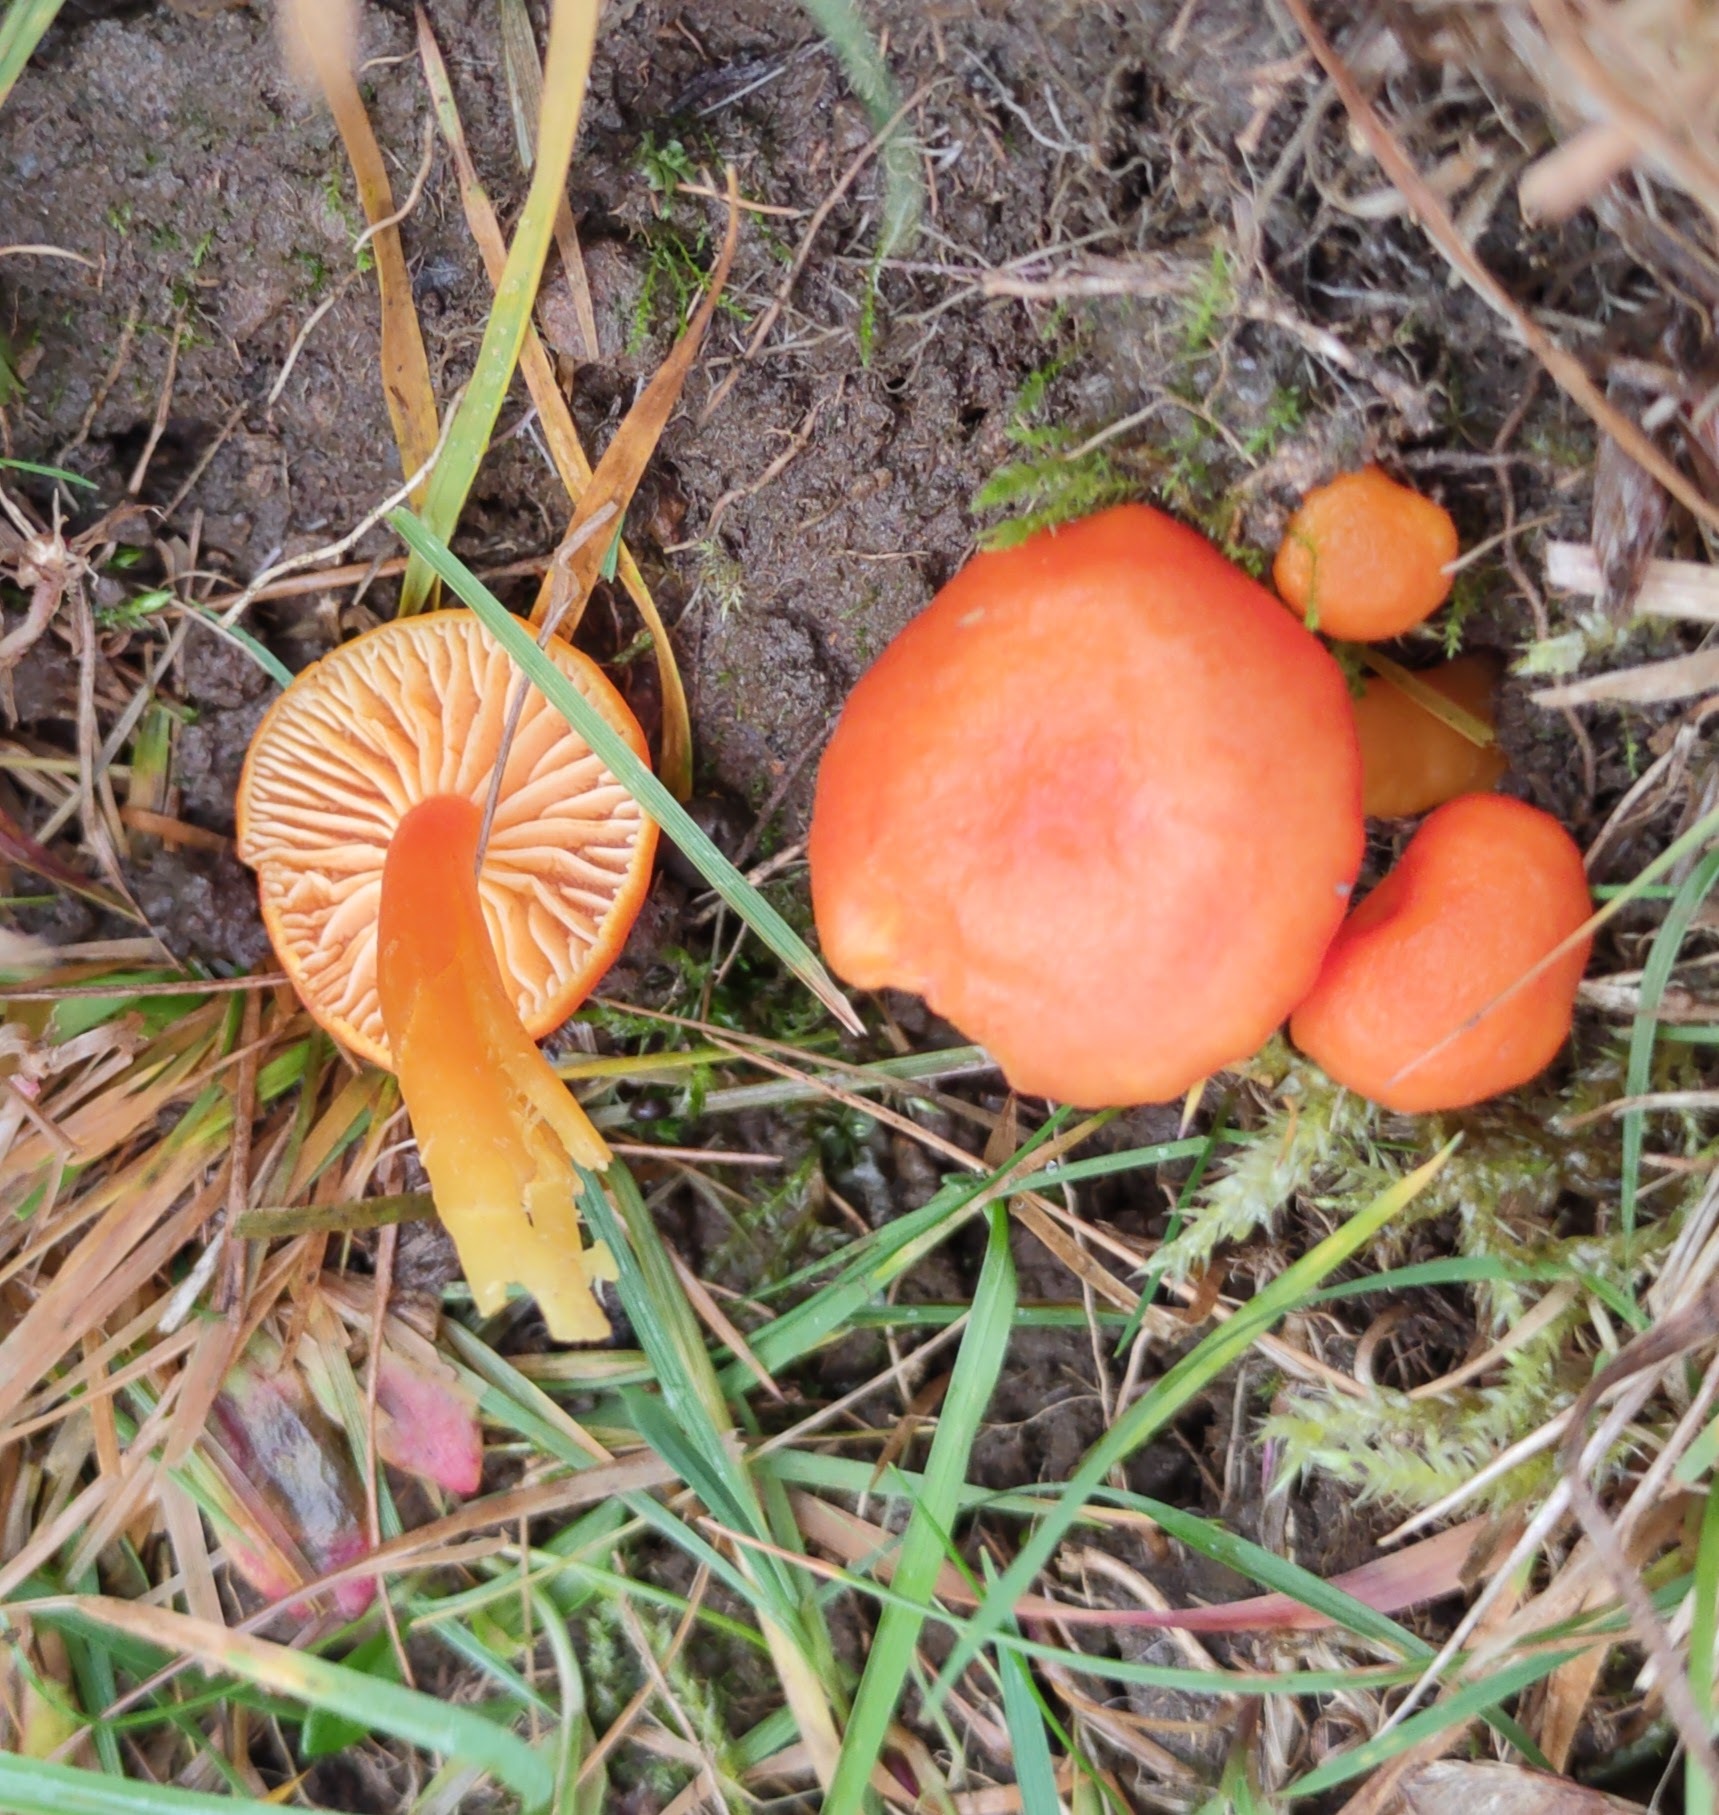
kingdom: Fungi
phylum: Basidiomycota
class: Agaricomycetes
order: Agaricales
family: Hygrophoraceae
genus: Hygrocybe
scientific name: Hygrocybe reidii
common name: Honey waxcap
